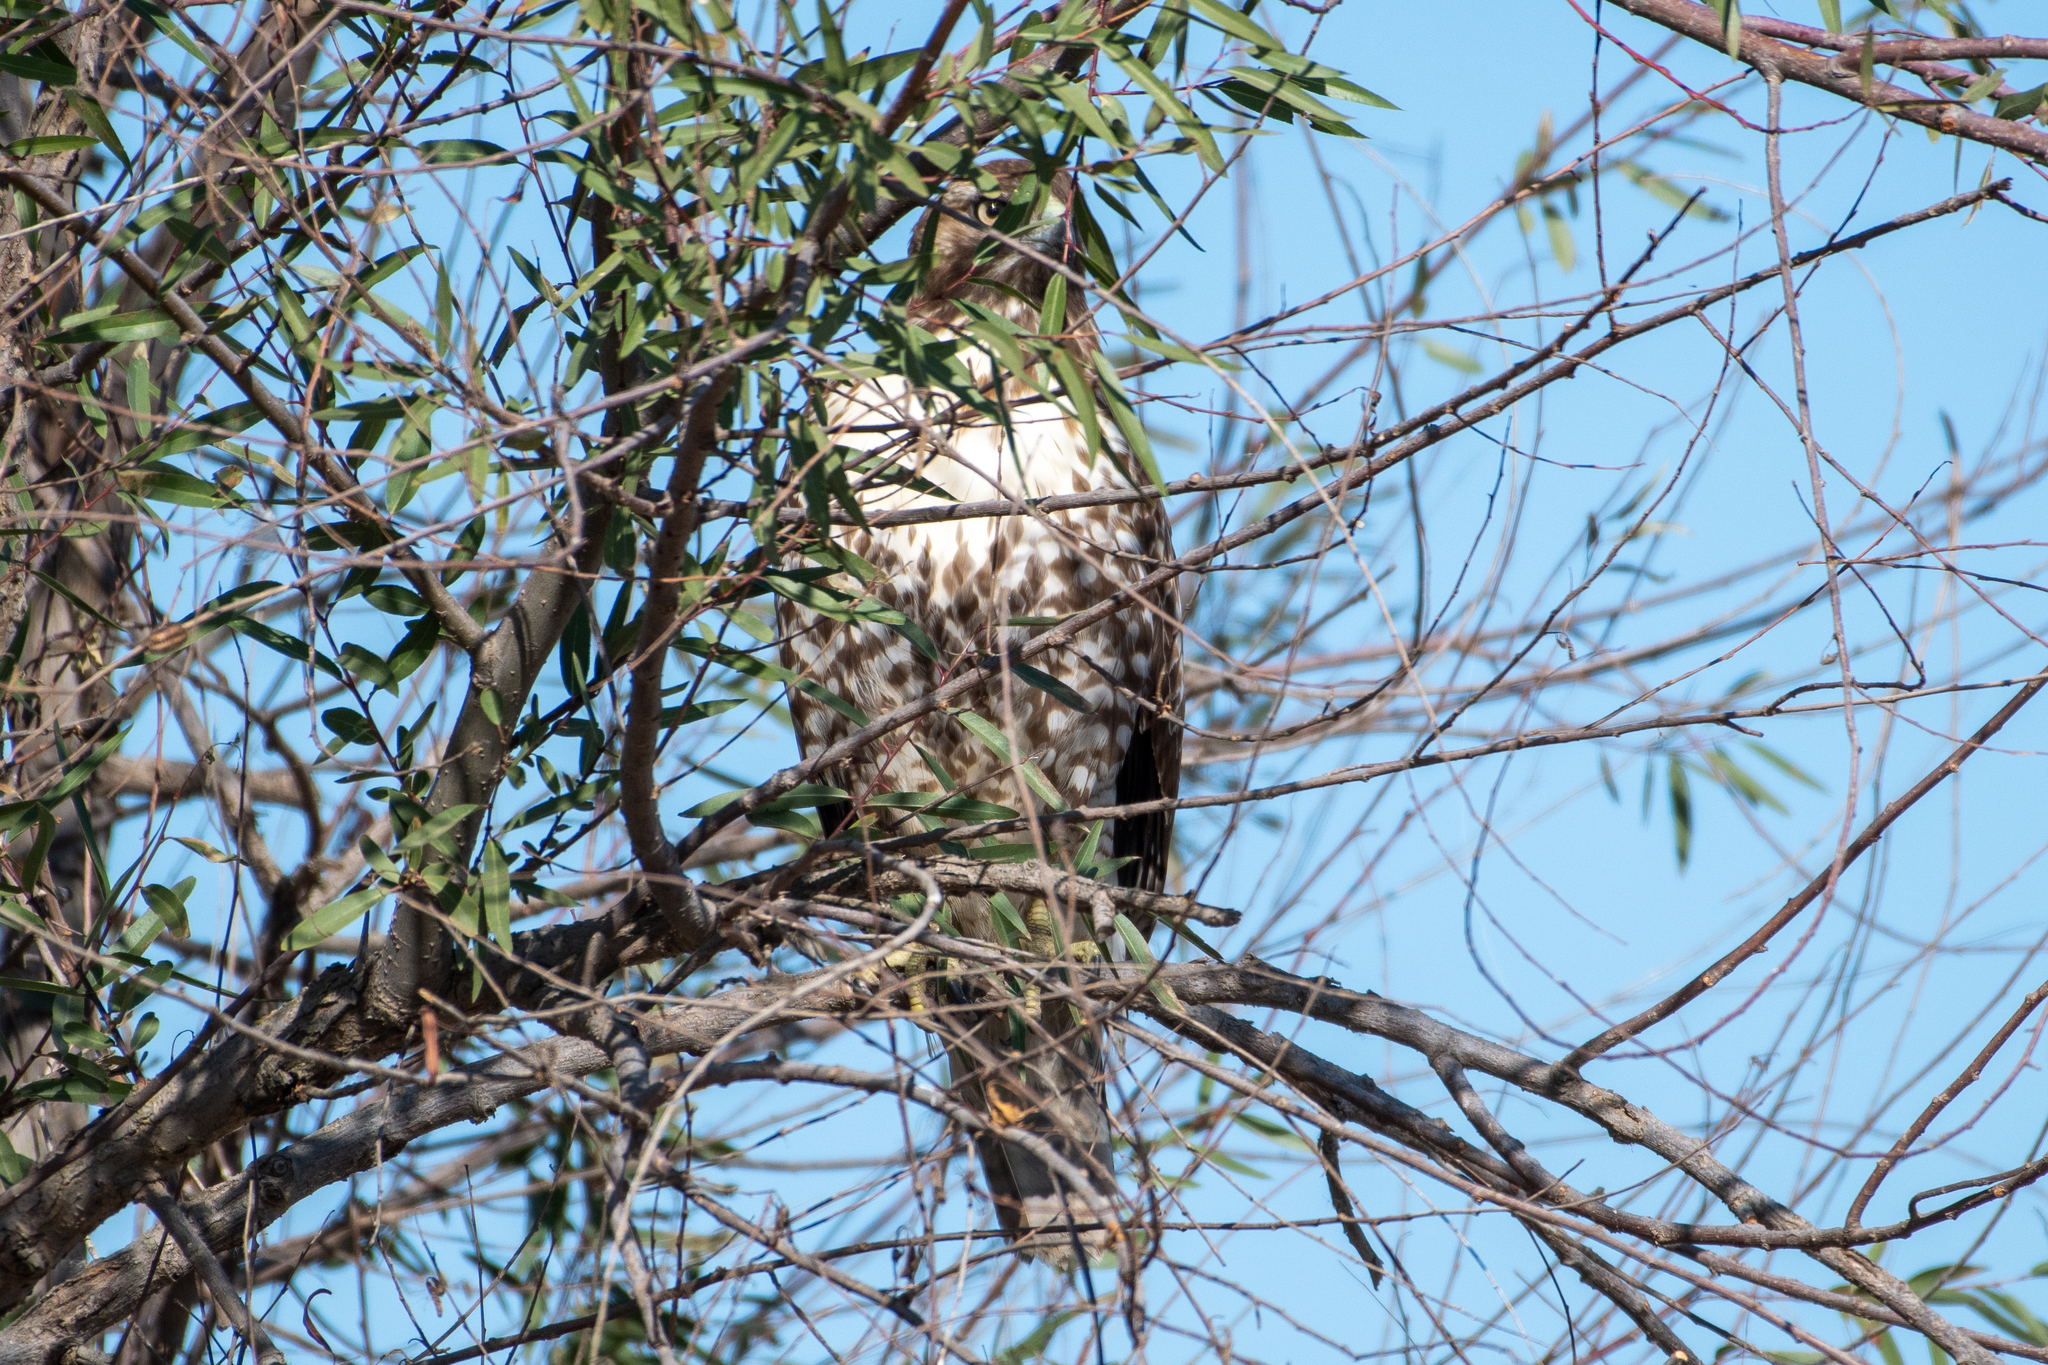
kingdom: Animalia
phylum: Chordata
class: Aves
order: Accipitriformes
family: Accipitridae
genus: Buteo
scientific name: Buteo jamaicensis
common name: Red-tailed hawk
